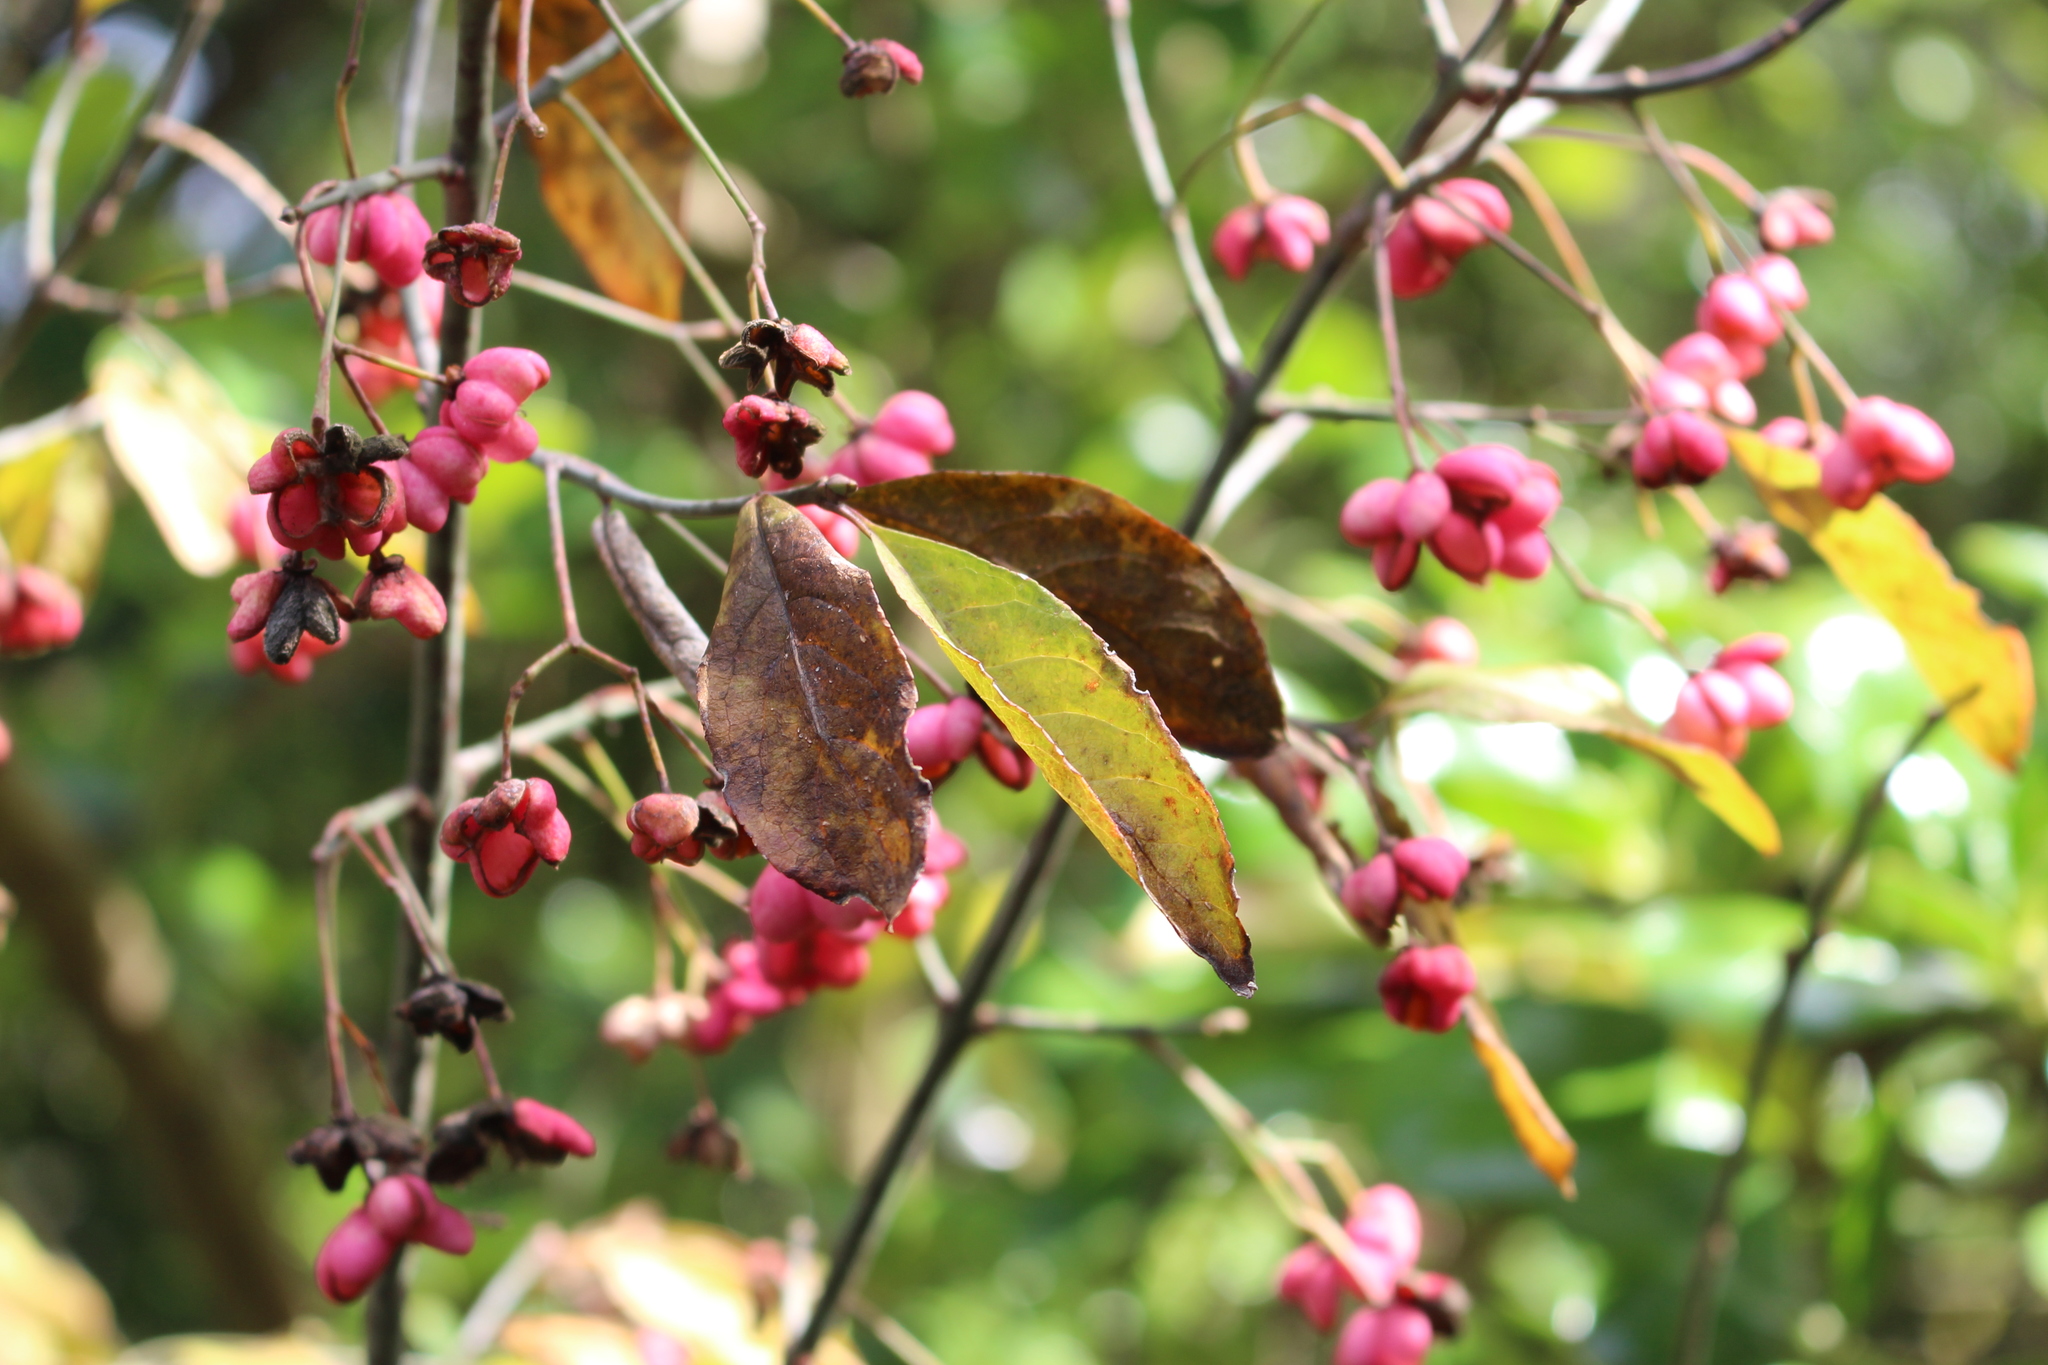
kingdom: Plantae
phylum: Tracheophyta
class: Magnoliopsida
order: Celastrales
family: Celastraceae
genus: Euonymus
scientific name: Euonymus europaeus
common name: Spindle
